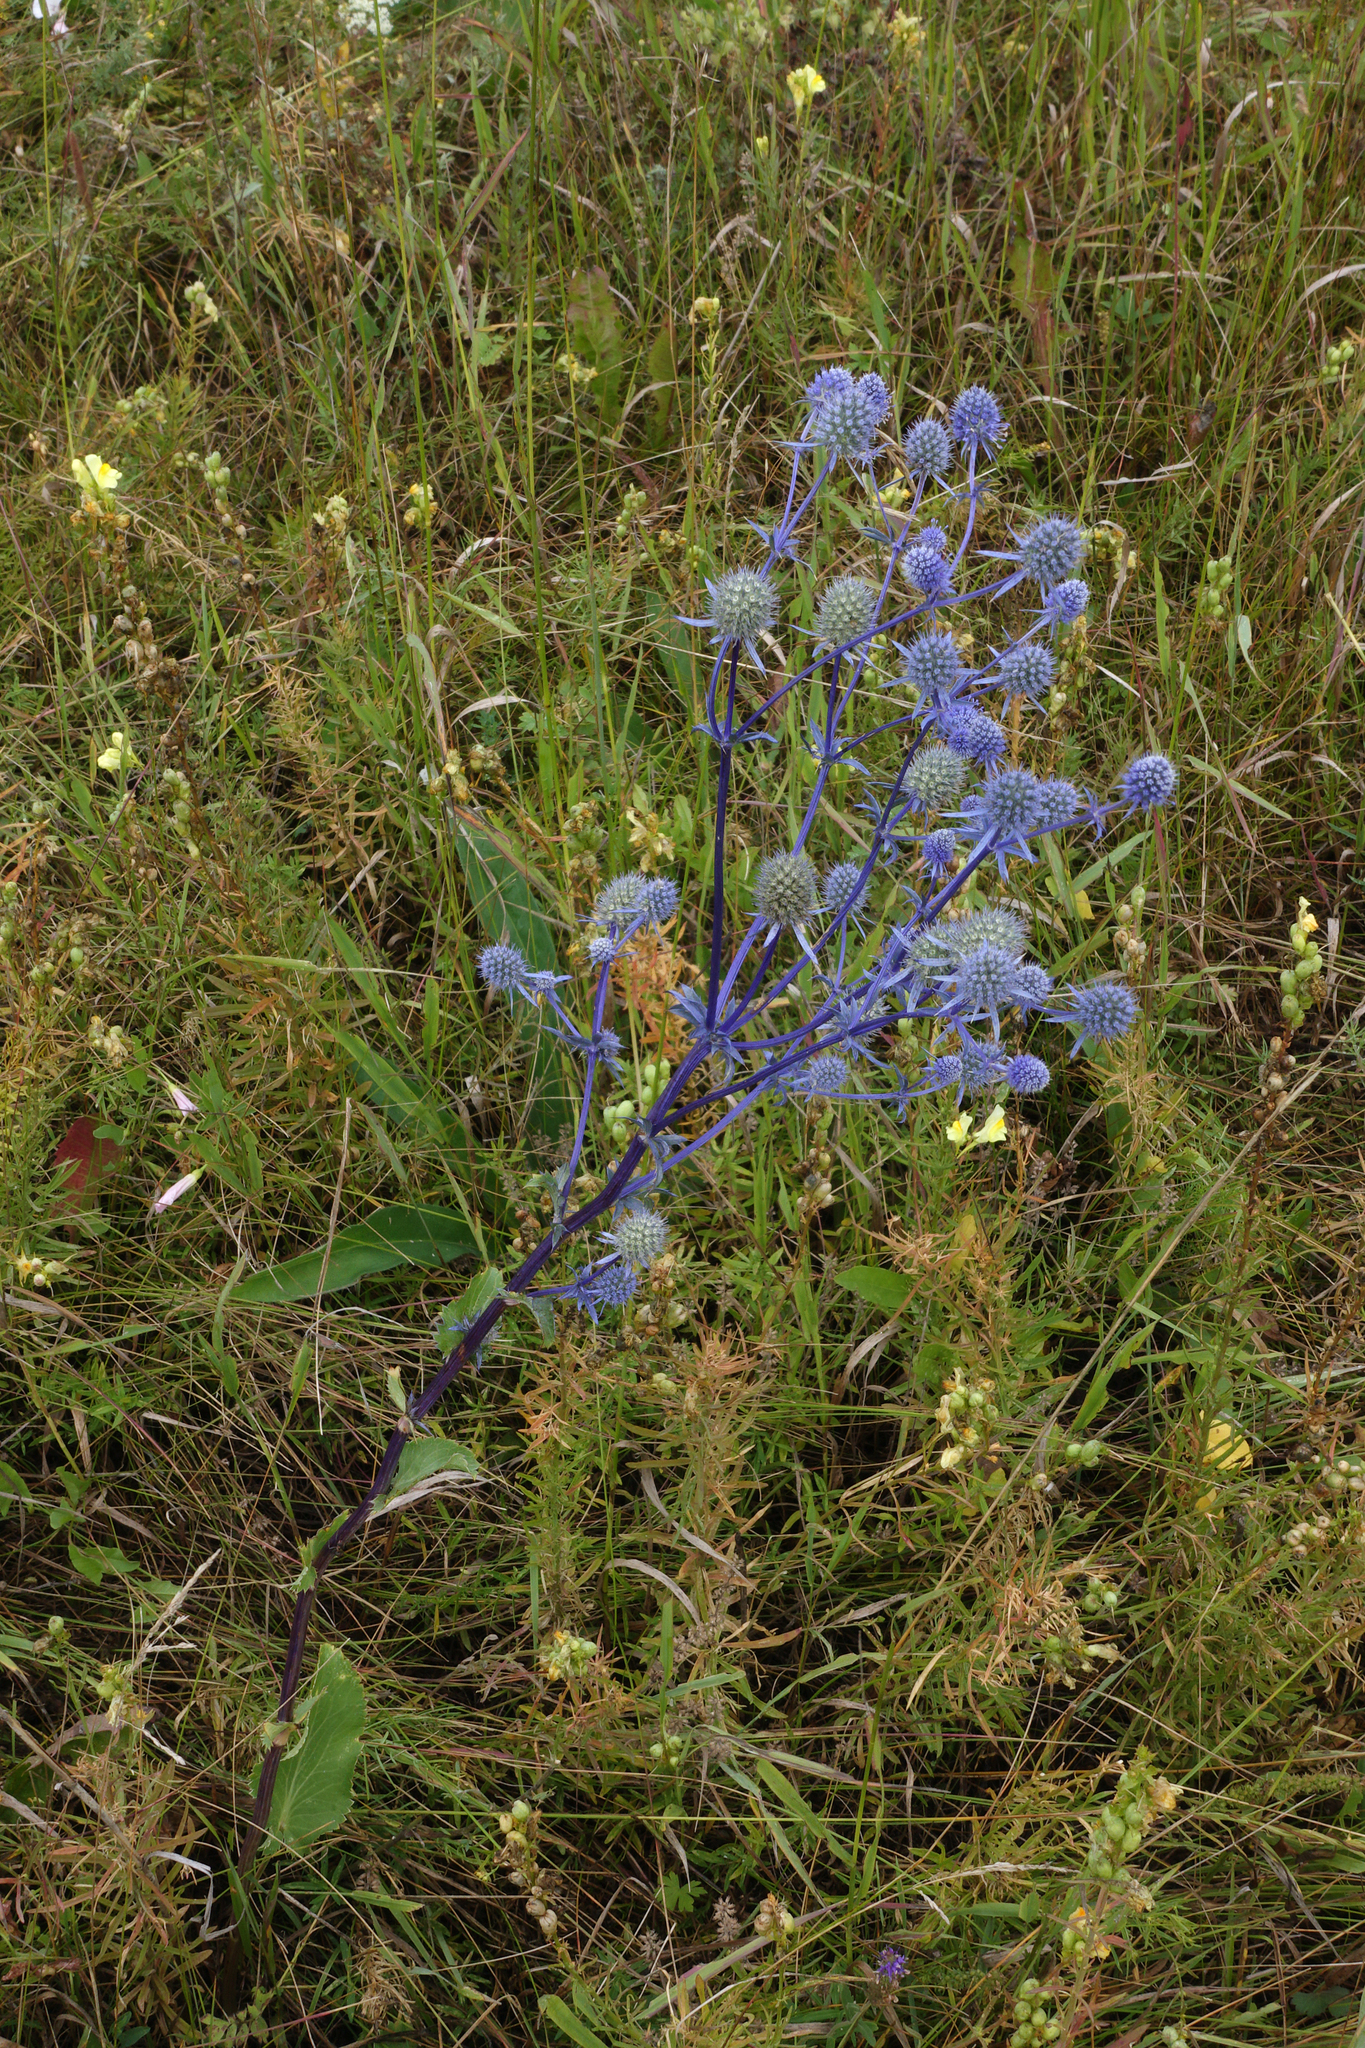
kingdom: Plantae
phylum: Tracheophyta
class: Magnoliopsida
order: Apiales
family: Apiaceae
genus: Eryngium
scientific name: Eryngium planum
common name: Blue eryngo
